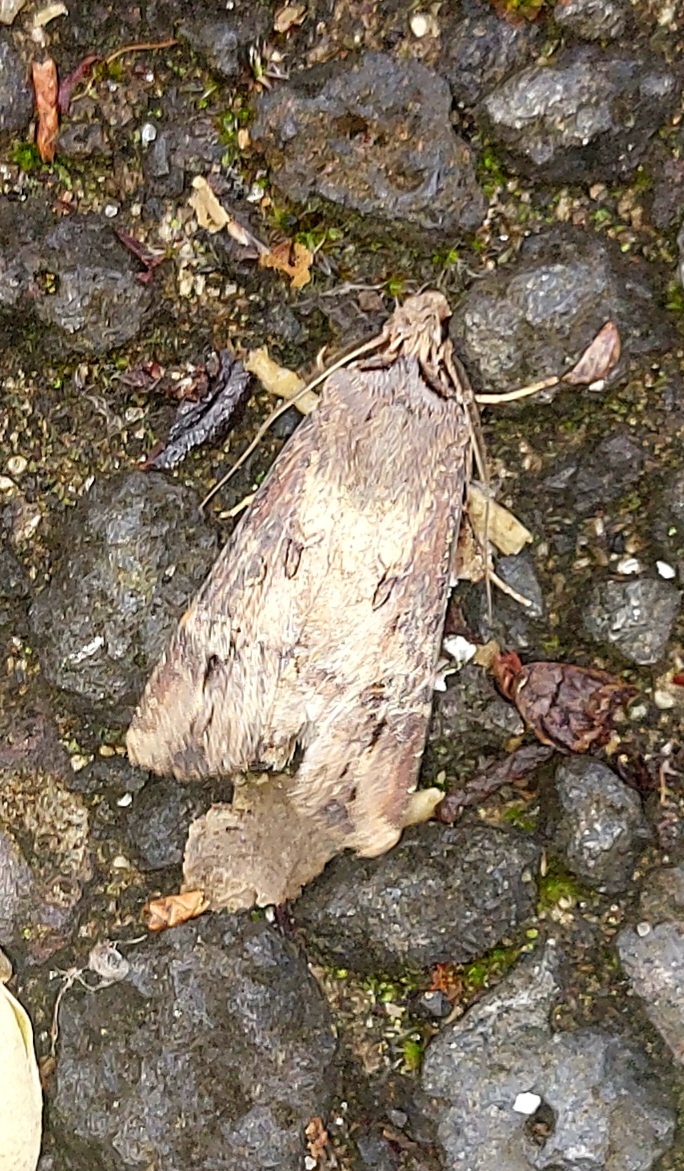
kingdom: Animalia
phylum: Arthropoda
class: Insecta
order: Lepidoptera
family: Noctuidae
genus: Agrotis
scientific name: Agrotis ipsilon
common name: Dark sword-grass
